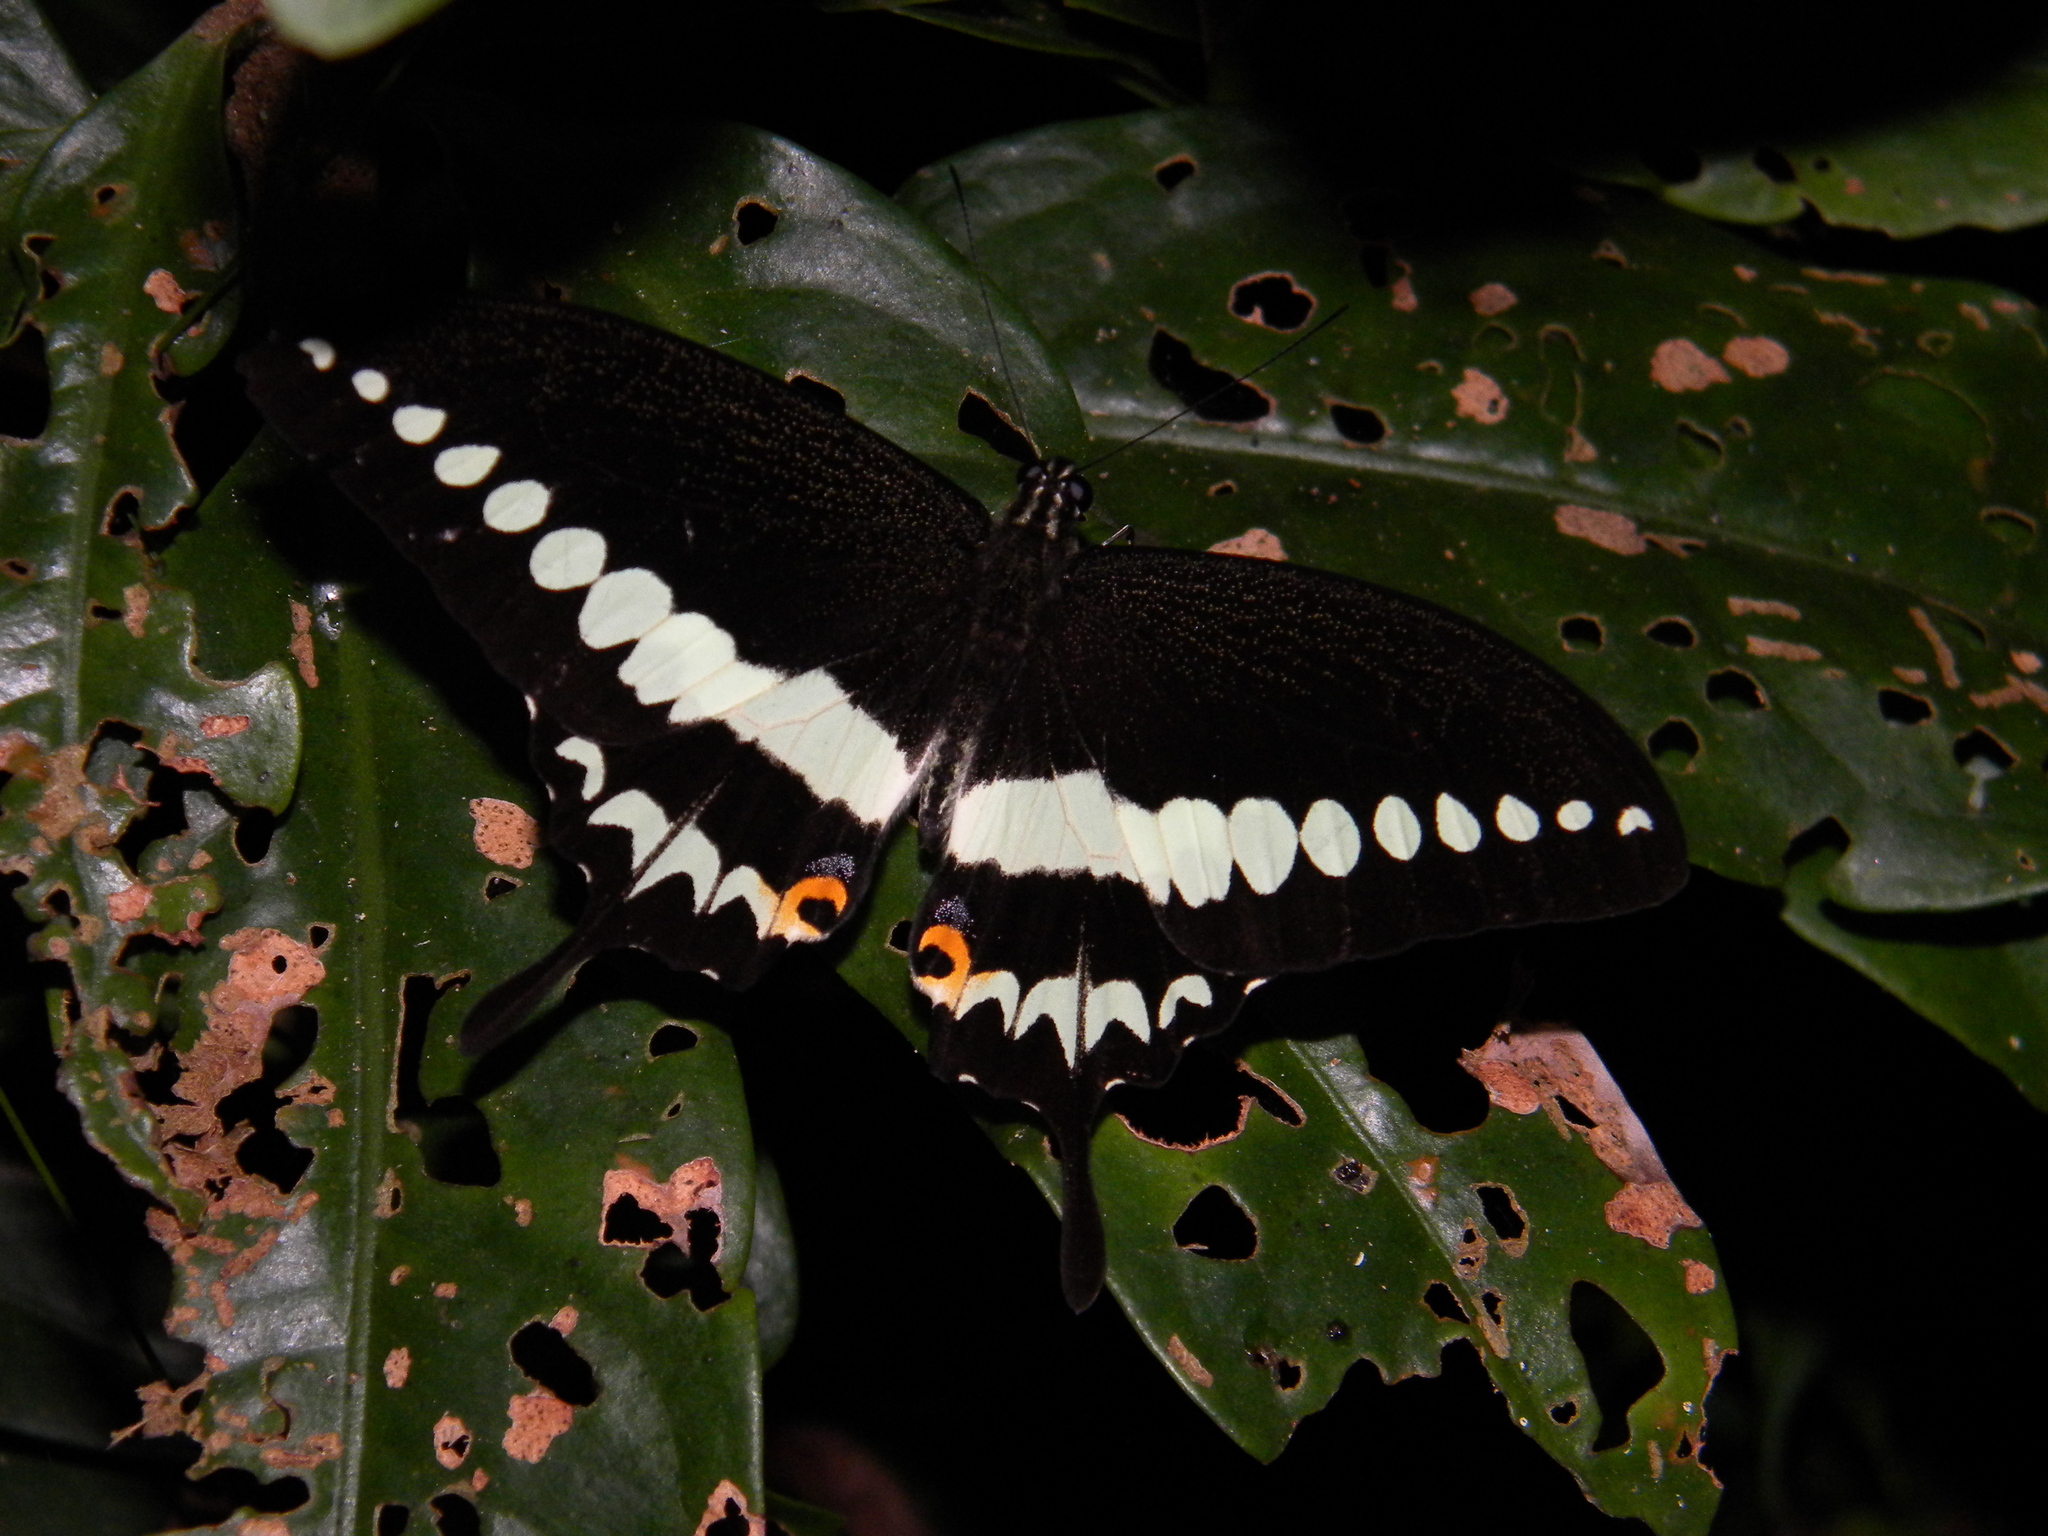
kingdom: Animalia
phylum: Arthropoda
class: Insecta
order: Lepidoptera
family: Papilionidae
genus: Papilio
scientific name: Papilio liomedon
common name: Malabar banded swallowtail
